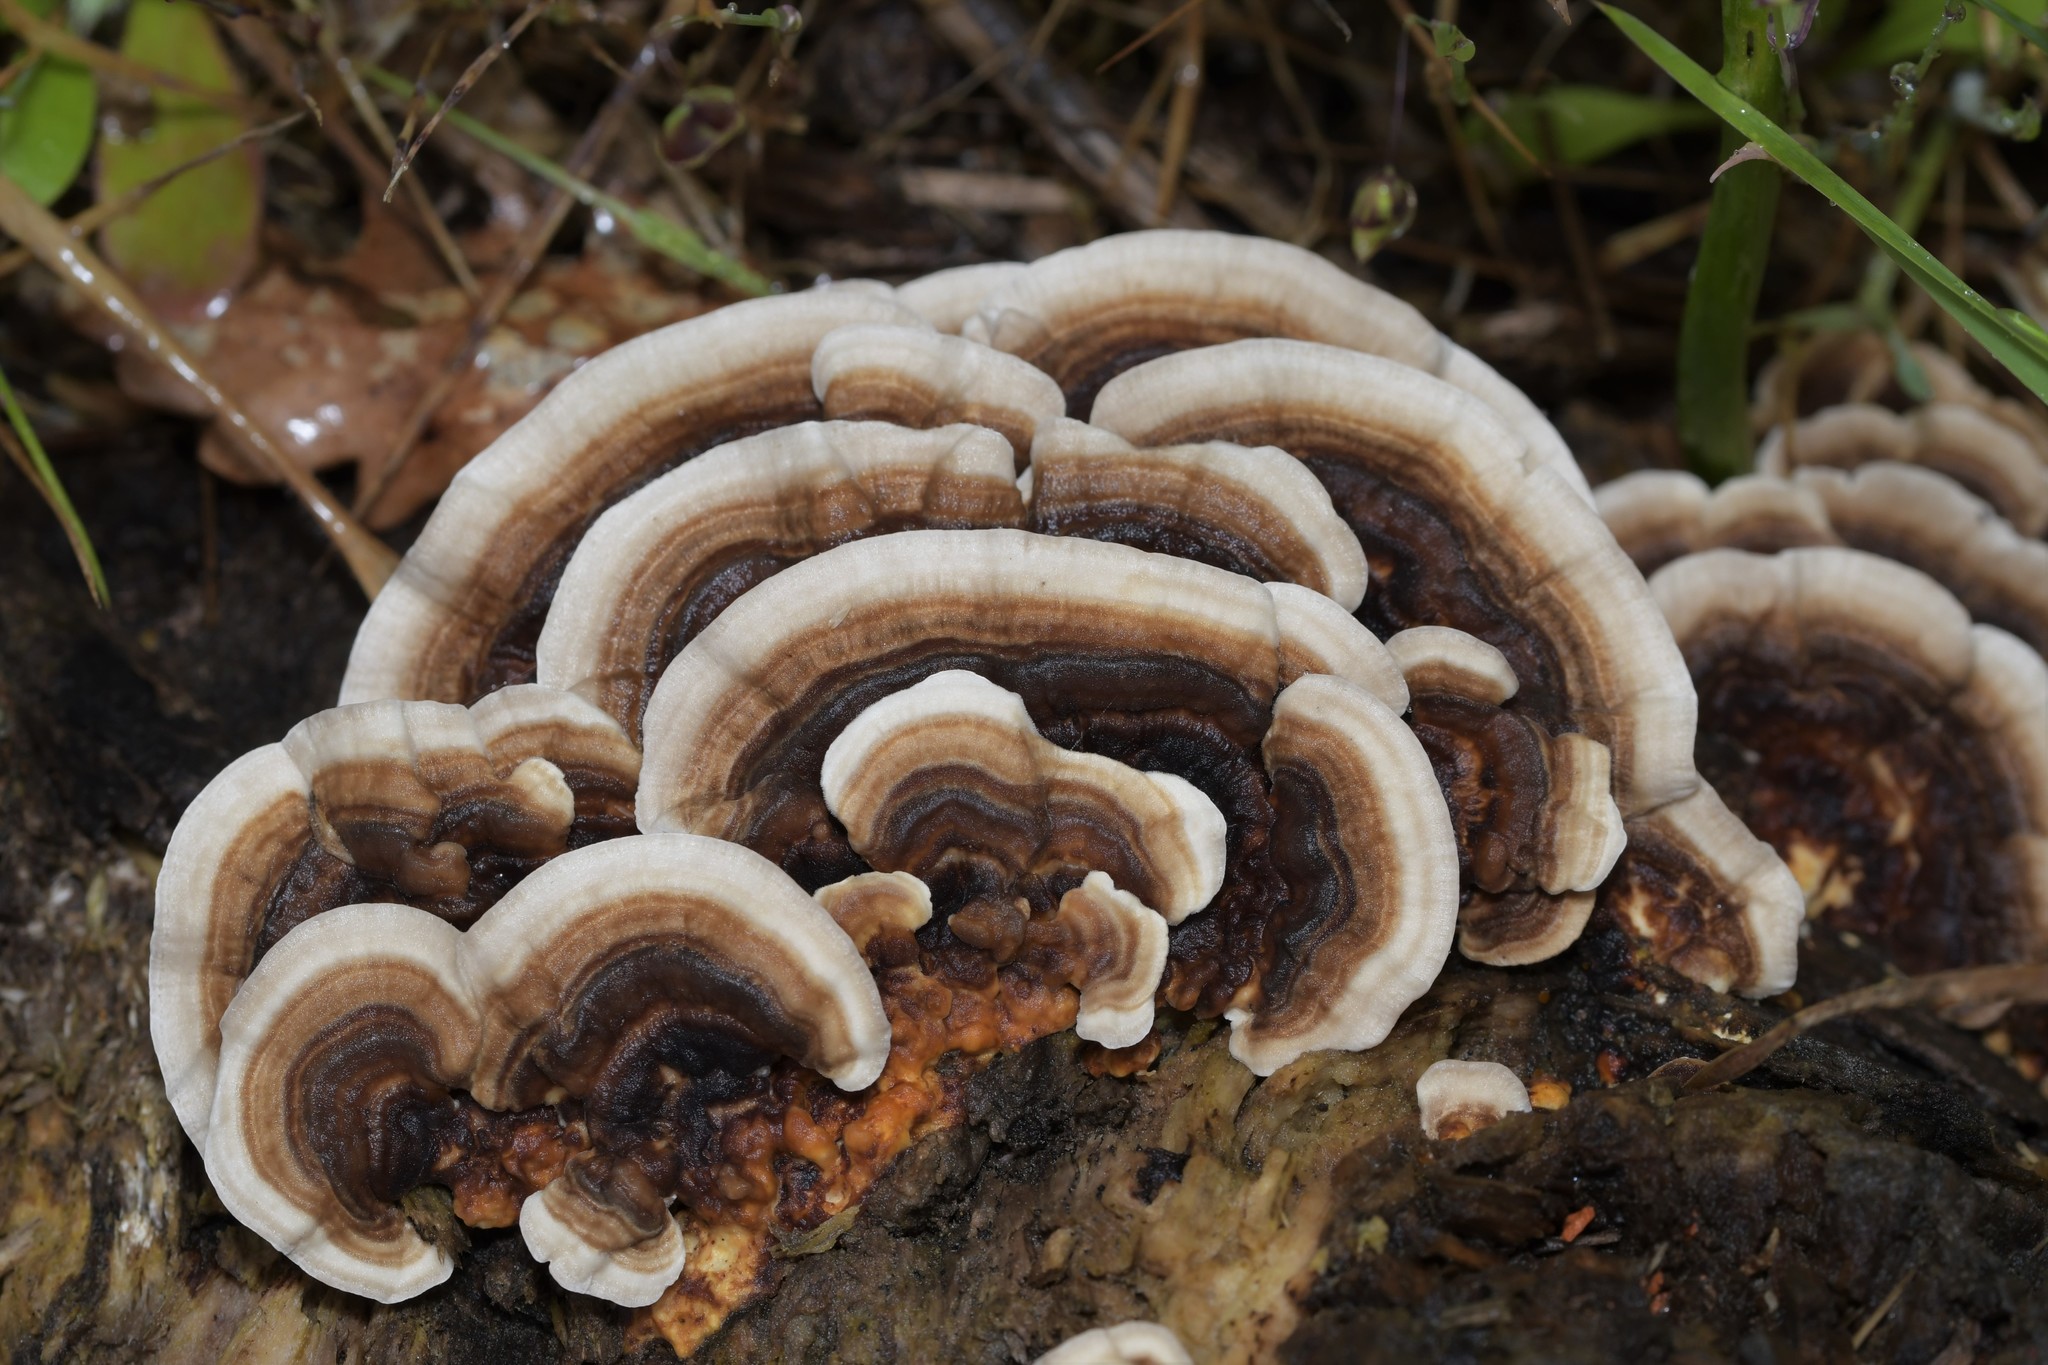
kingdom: Fungi
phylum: Basidiomycota
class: Agaricomycetes
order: Polyporales
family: Polyporaceae
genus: Trametes
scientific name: Trametes versicolor
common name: Turkeytail
